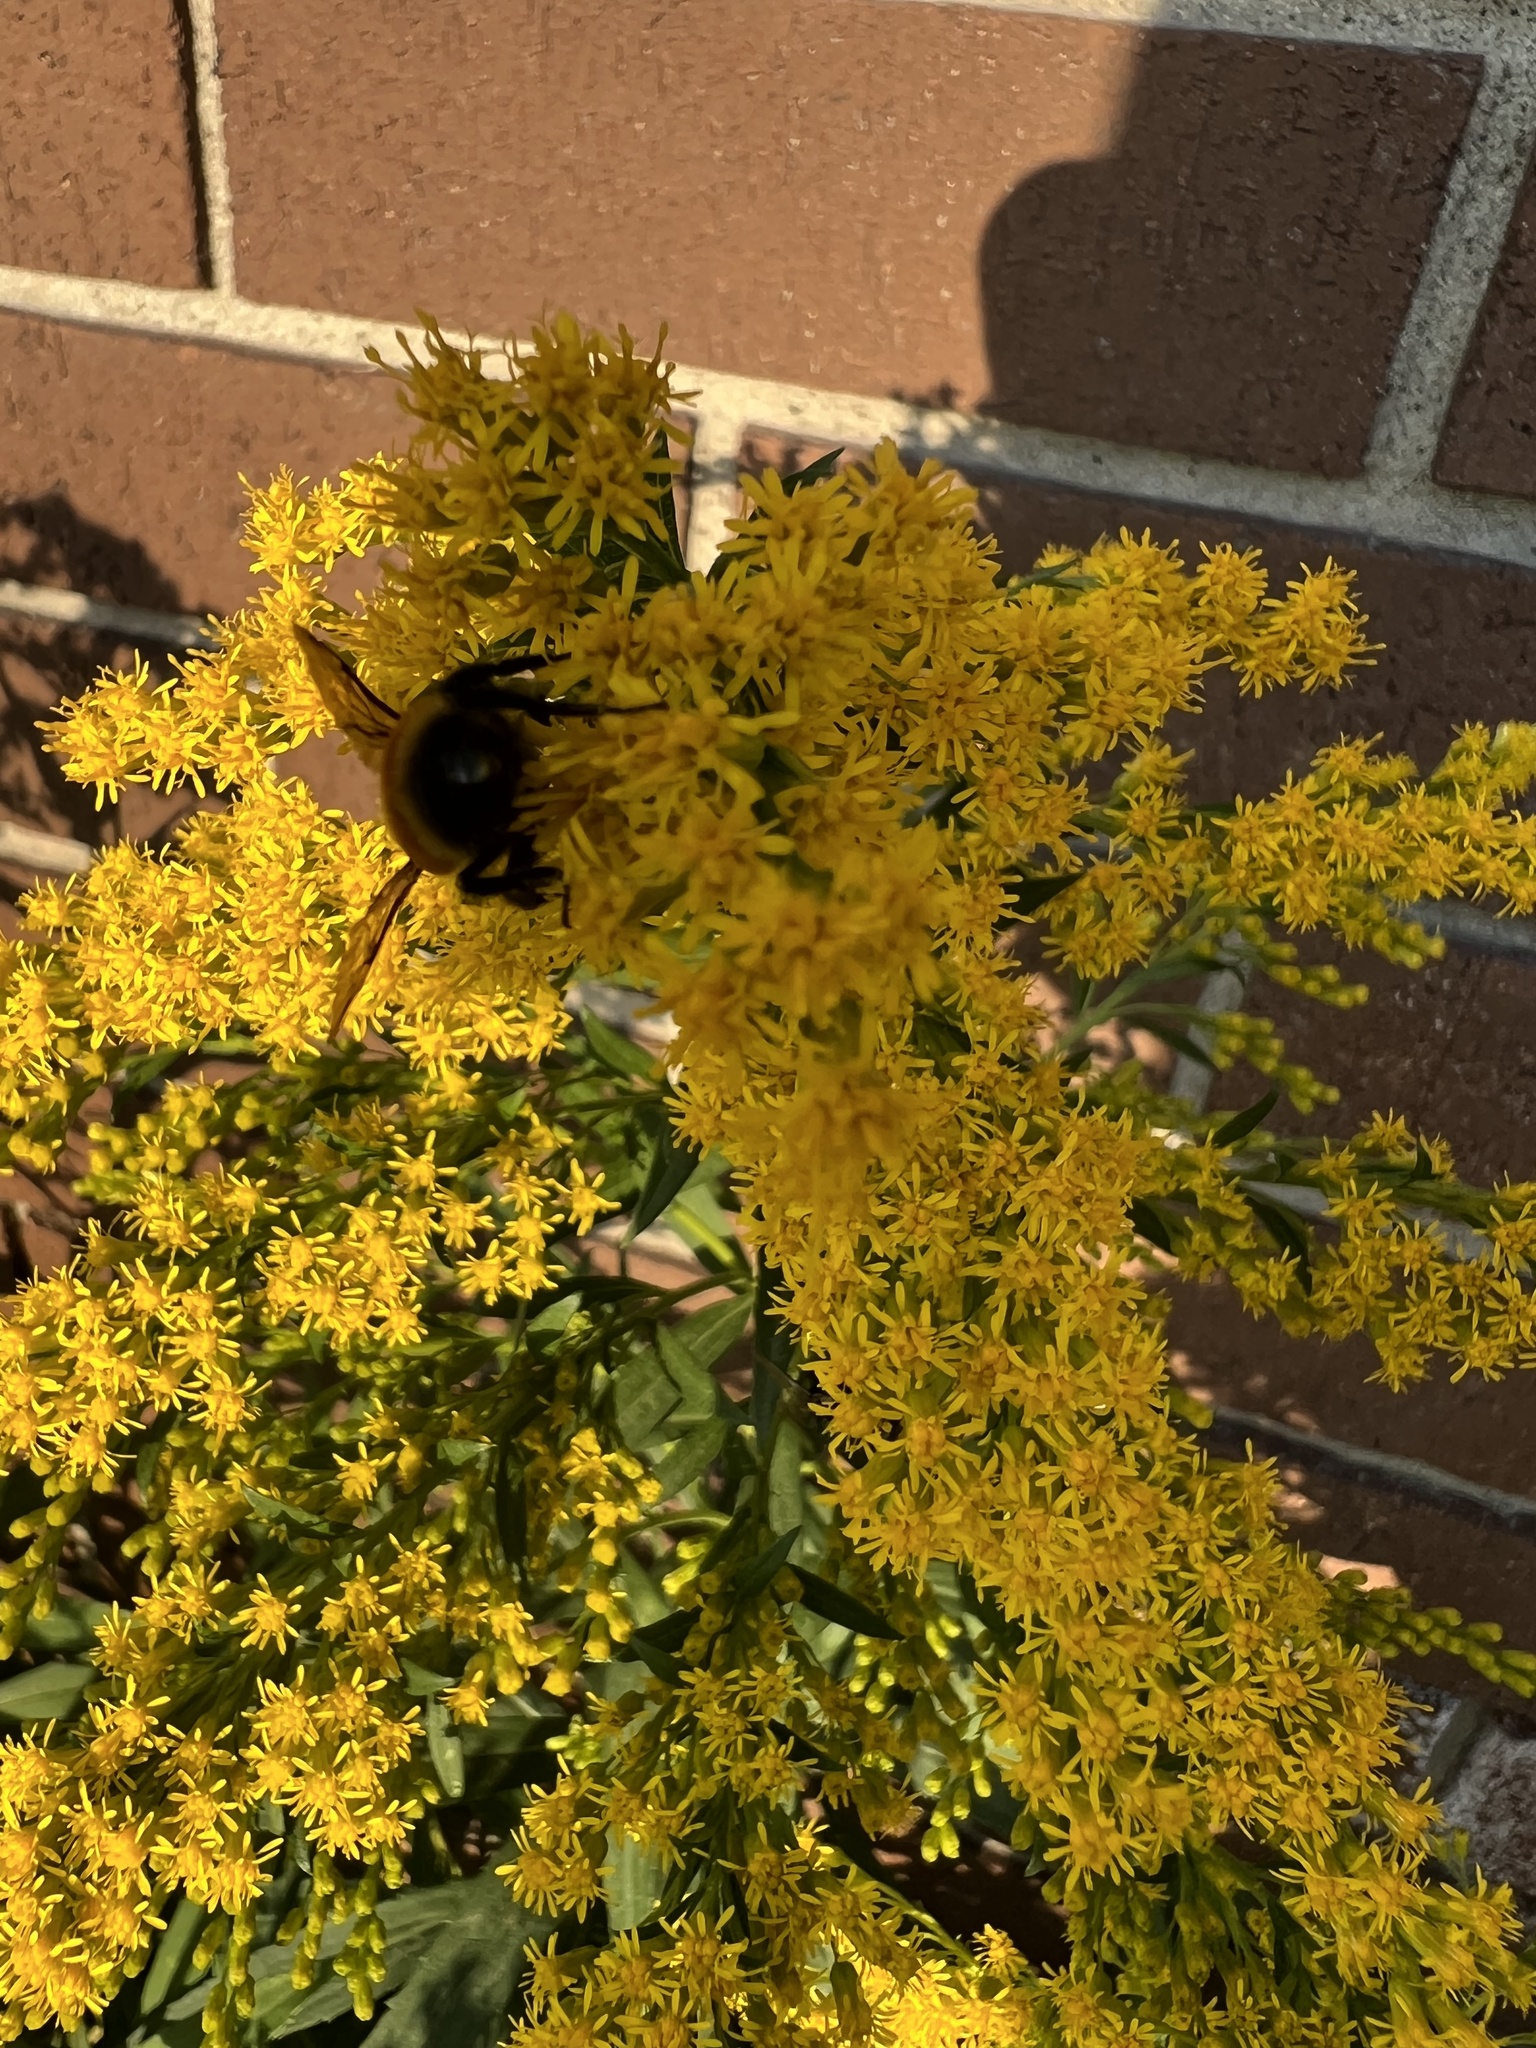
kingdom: Animalia
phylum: Arthropoda
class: Insecta
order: Hymenoptera
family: Apidae
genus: Bombus
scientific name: Bombus ternarius
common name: Tri-colored bumble bee
